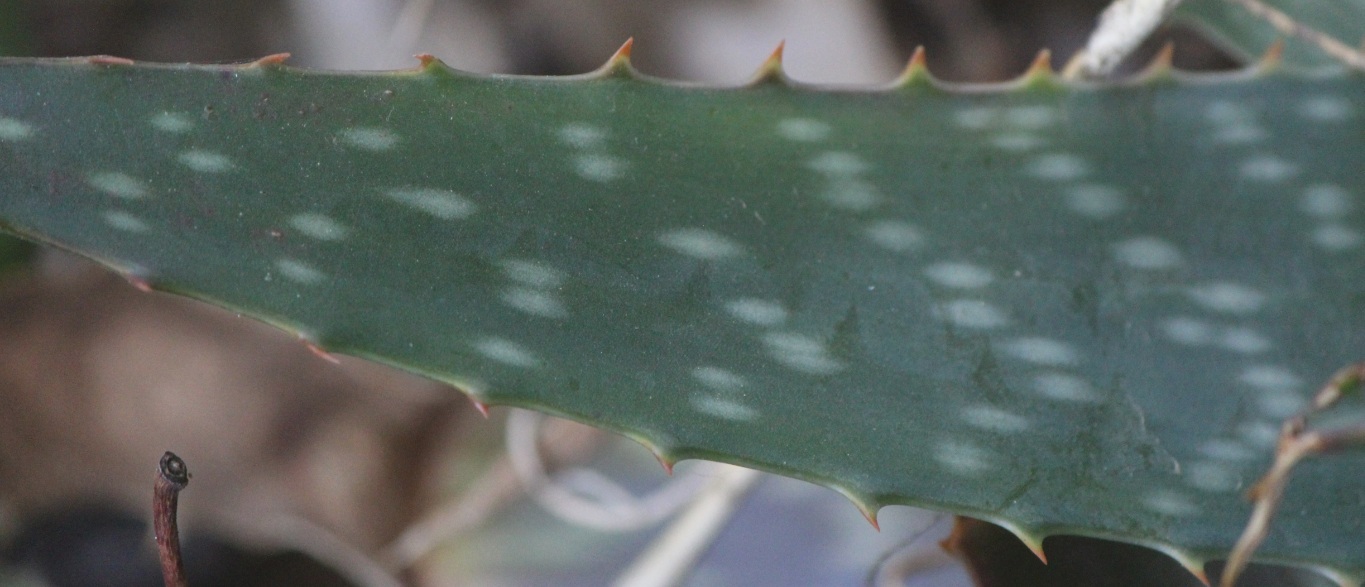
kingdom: Plantae
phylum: Tracheophyta
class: Liliopsida
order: Asparagales
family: Asphodelaceae
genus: Aloe
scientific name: Aloe maculata
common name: Broadleaf aloe
